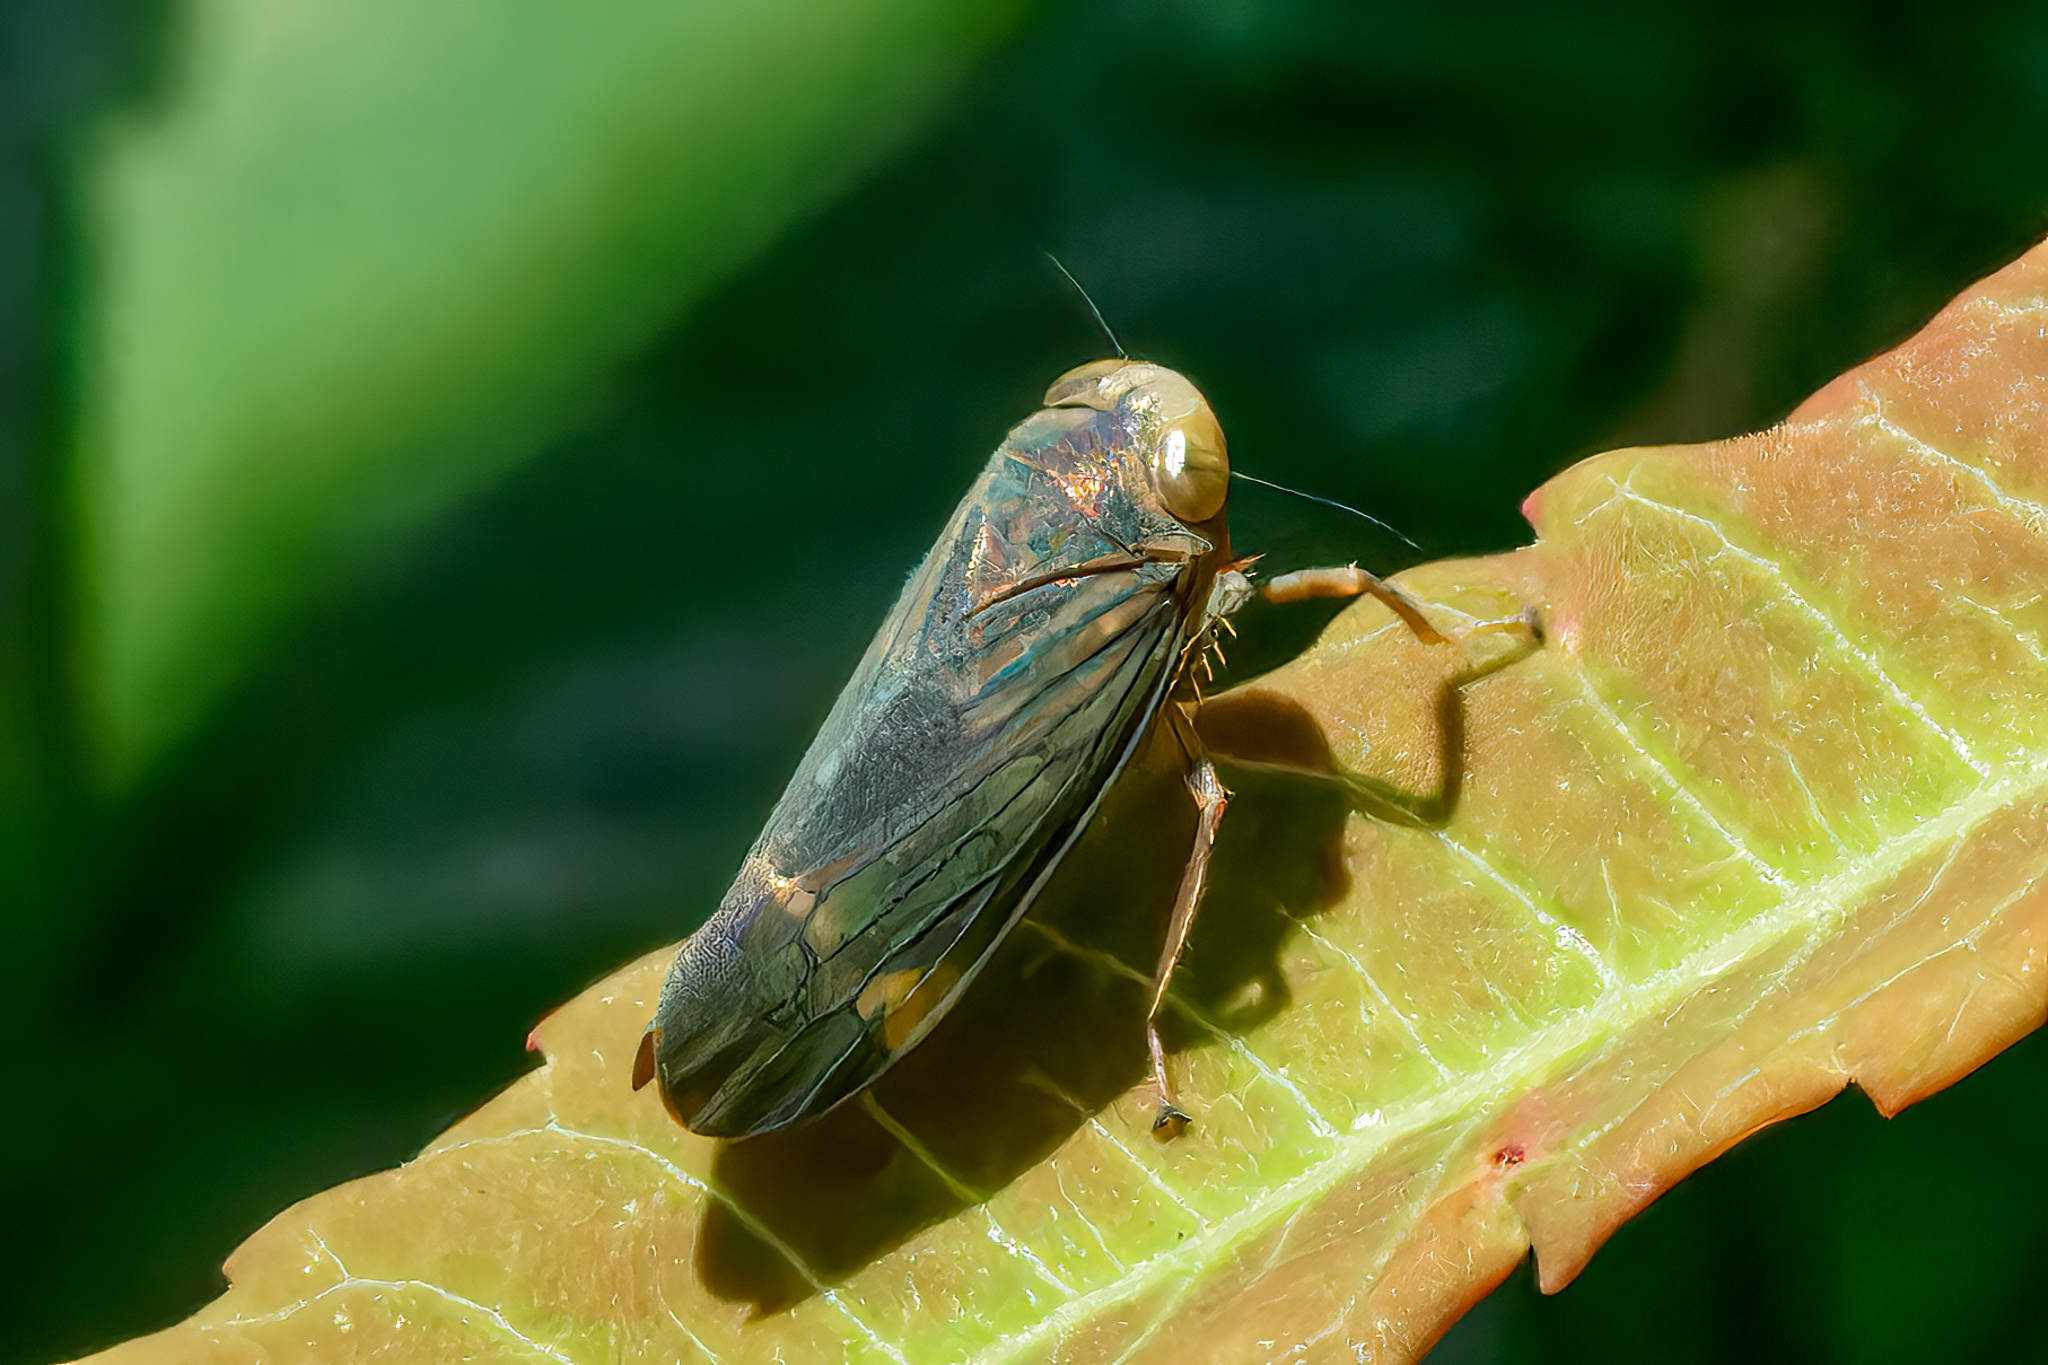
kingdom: Animalia
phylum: Arthropoda
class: Insecta
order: Hemiptera
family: Cicadellidae
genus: Jikradia
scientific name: Jikradia olitoria
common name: Coppery leafhopper
